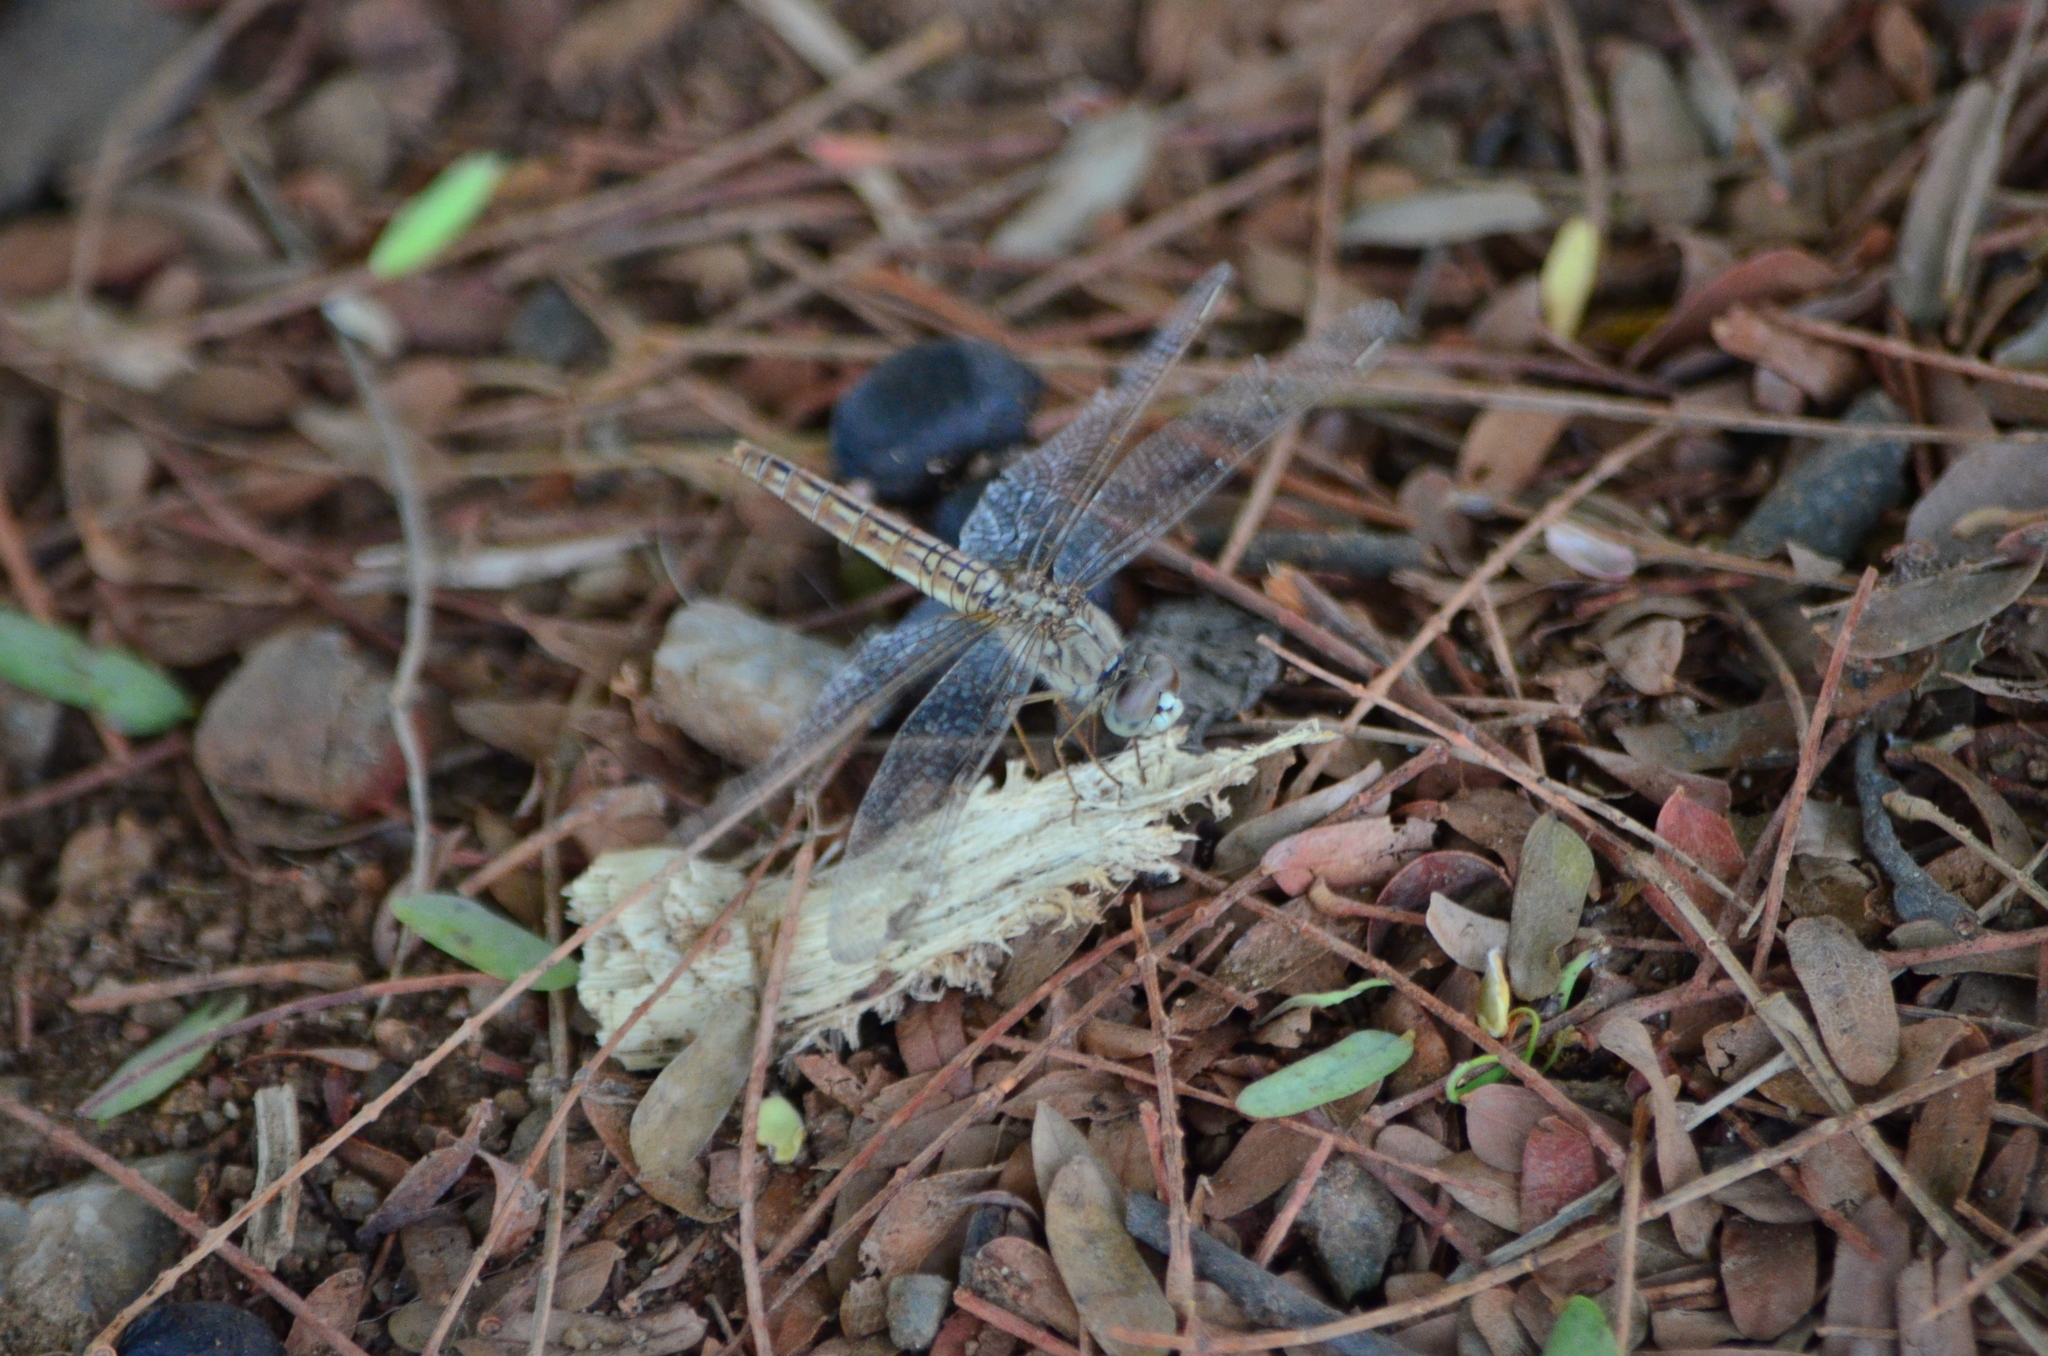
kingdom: Animalia
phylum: Arthropoda
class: Insecta
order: Odonata
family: Libellulidae
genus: Brachythemis
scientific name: Brachythemis contaminata
